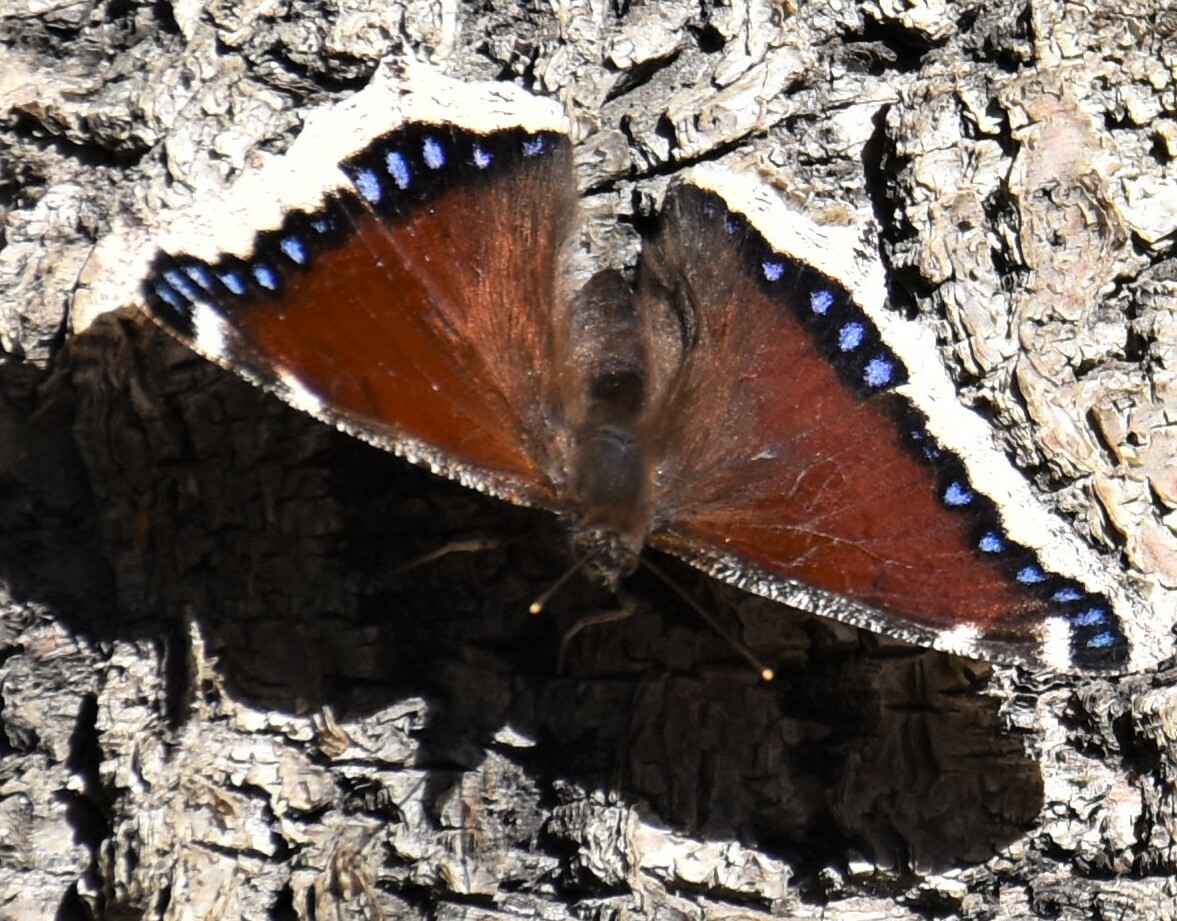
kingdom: Animalia
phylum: Arthropoda
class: Insecta
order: Lepidoptera
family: Nymphalidae
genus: Nymphalis
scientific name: Nymphalis antiopa
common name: Camberwell beauty
